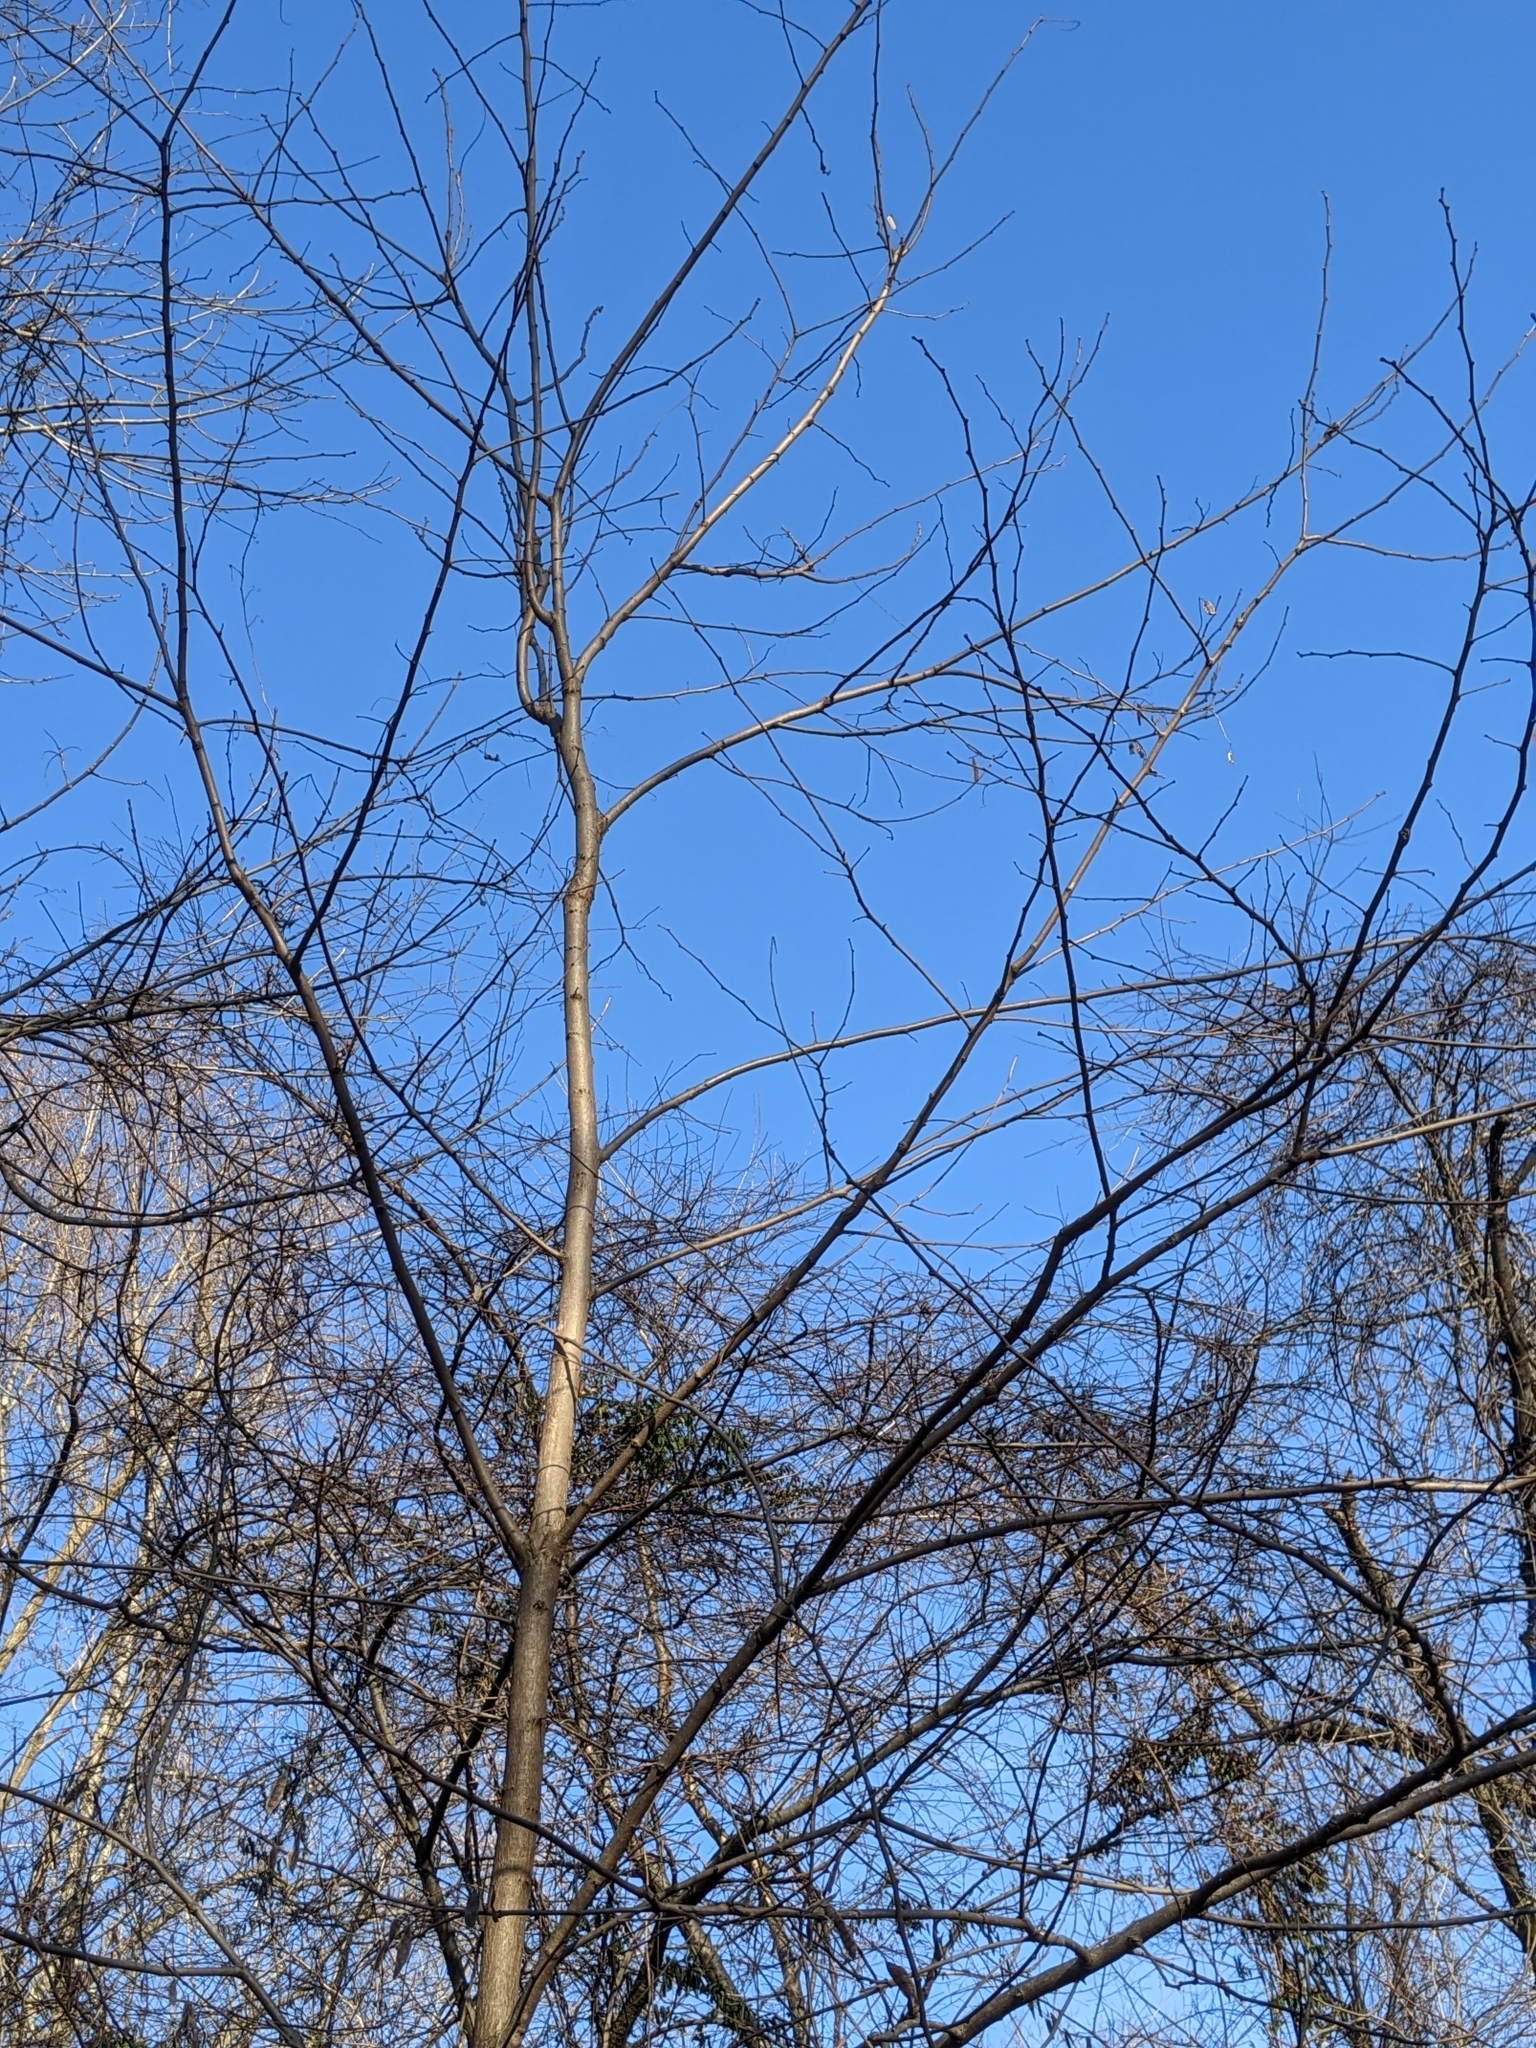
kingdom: Plantae
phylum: Tracheophyta
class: Magnoliopsida
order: Fabales
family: Fabaceae
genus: Cercis
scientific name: Cercis canadensis
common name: Eastern redbud
